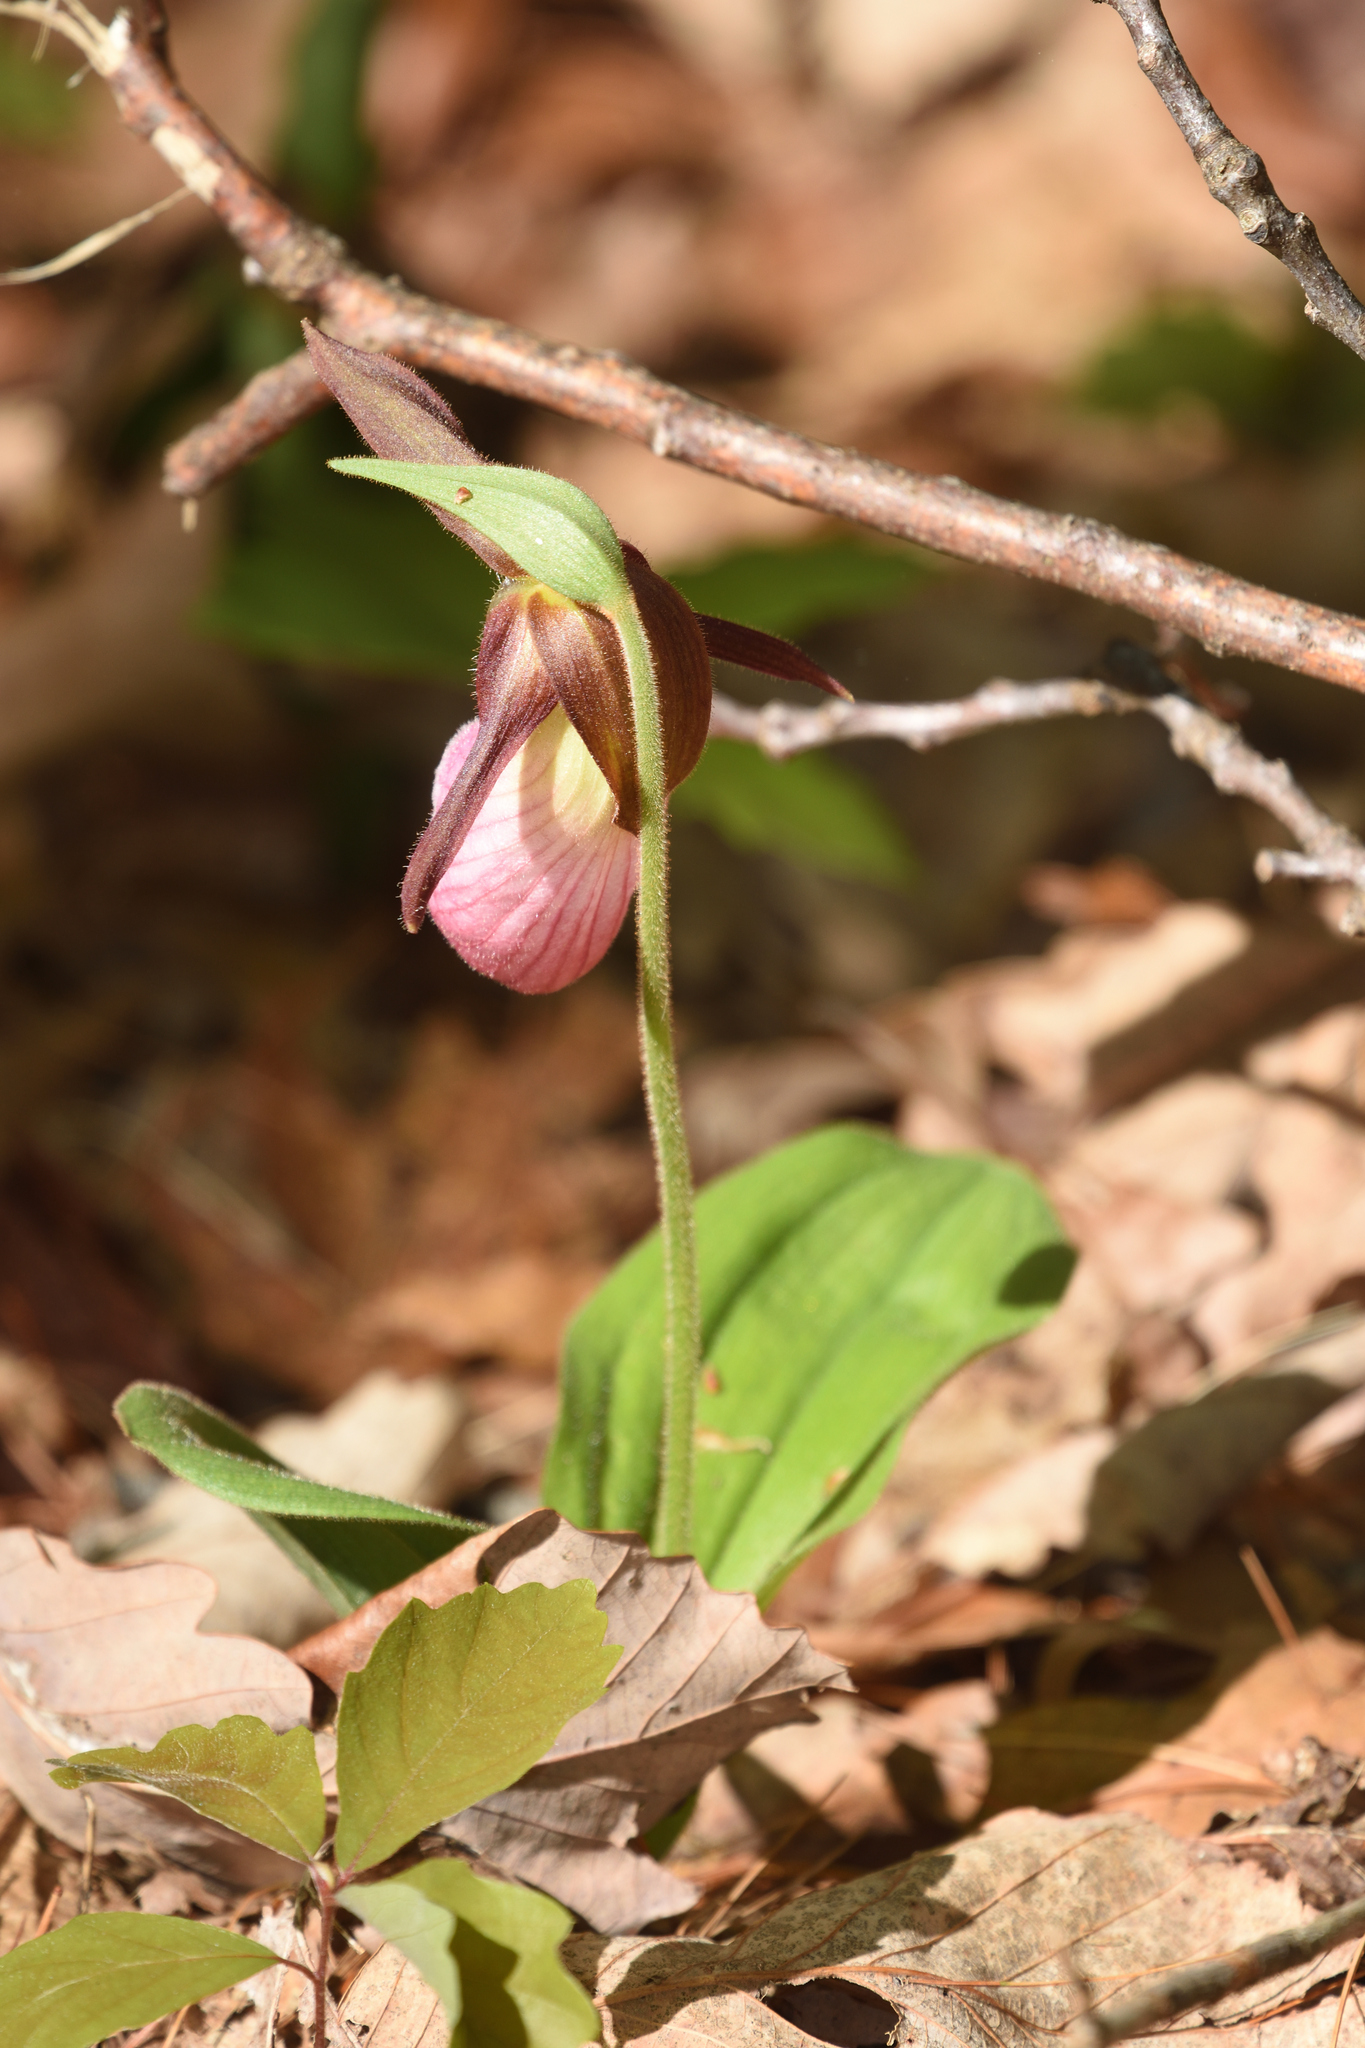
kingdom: Plantae
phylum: Tracheophyta
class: Liliopsida
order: Asparagales
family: Orchidaceae
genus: Cypripedium
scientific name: Cypripedium acaule
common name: Pink lady's-slipper
